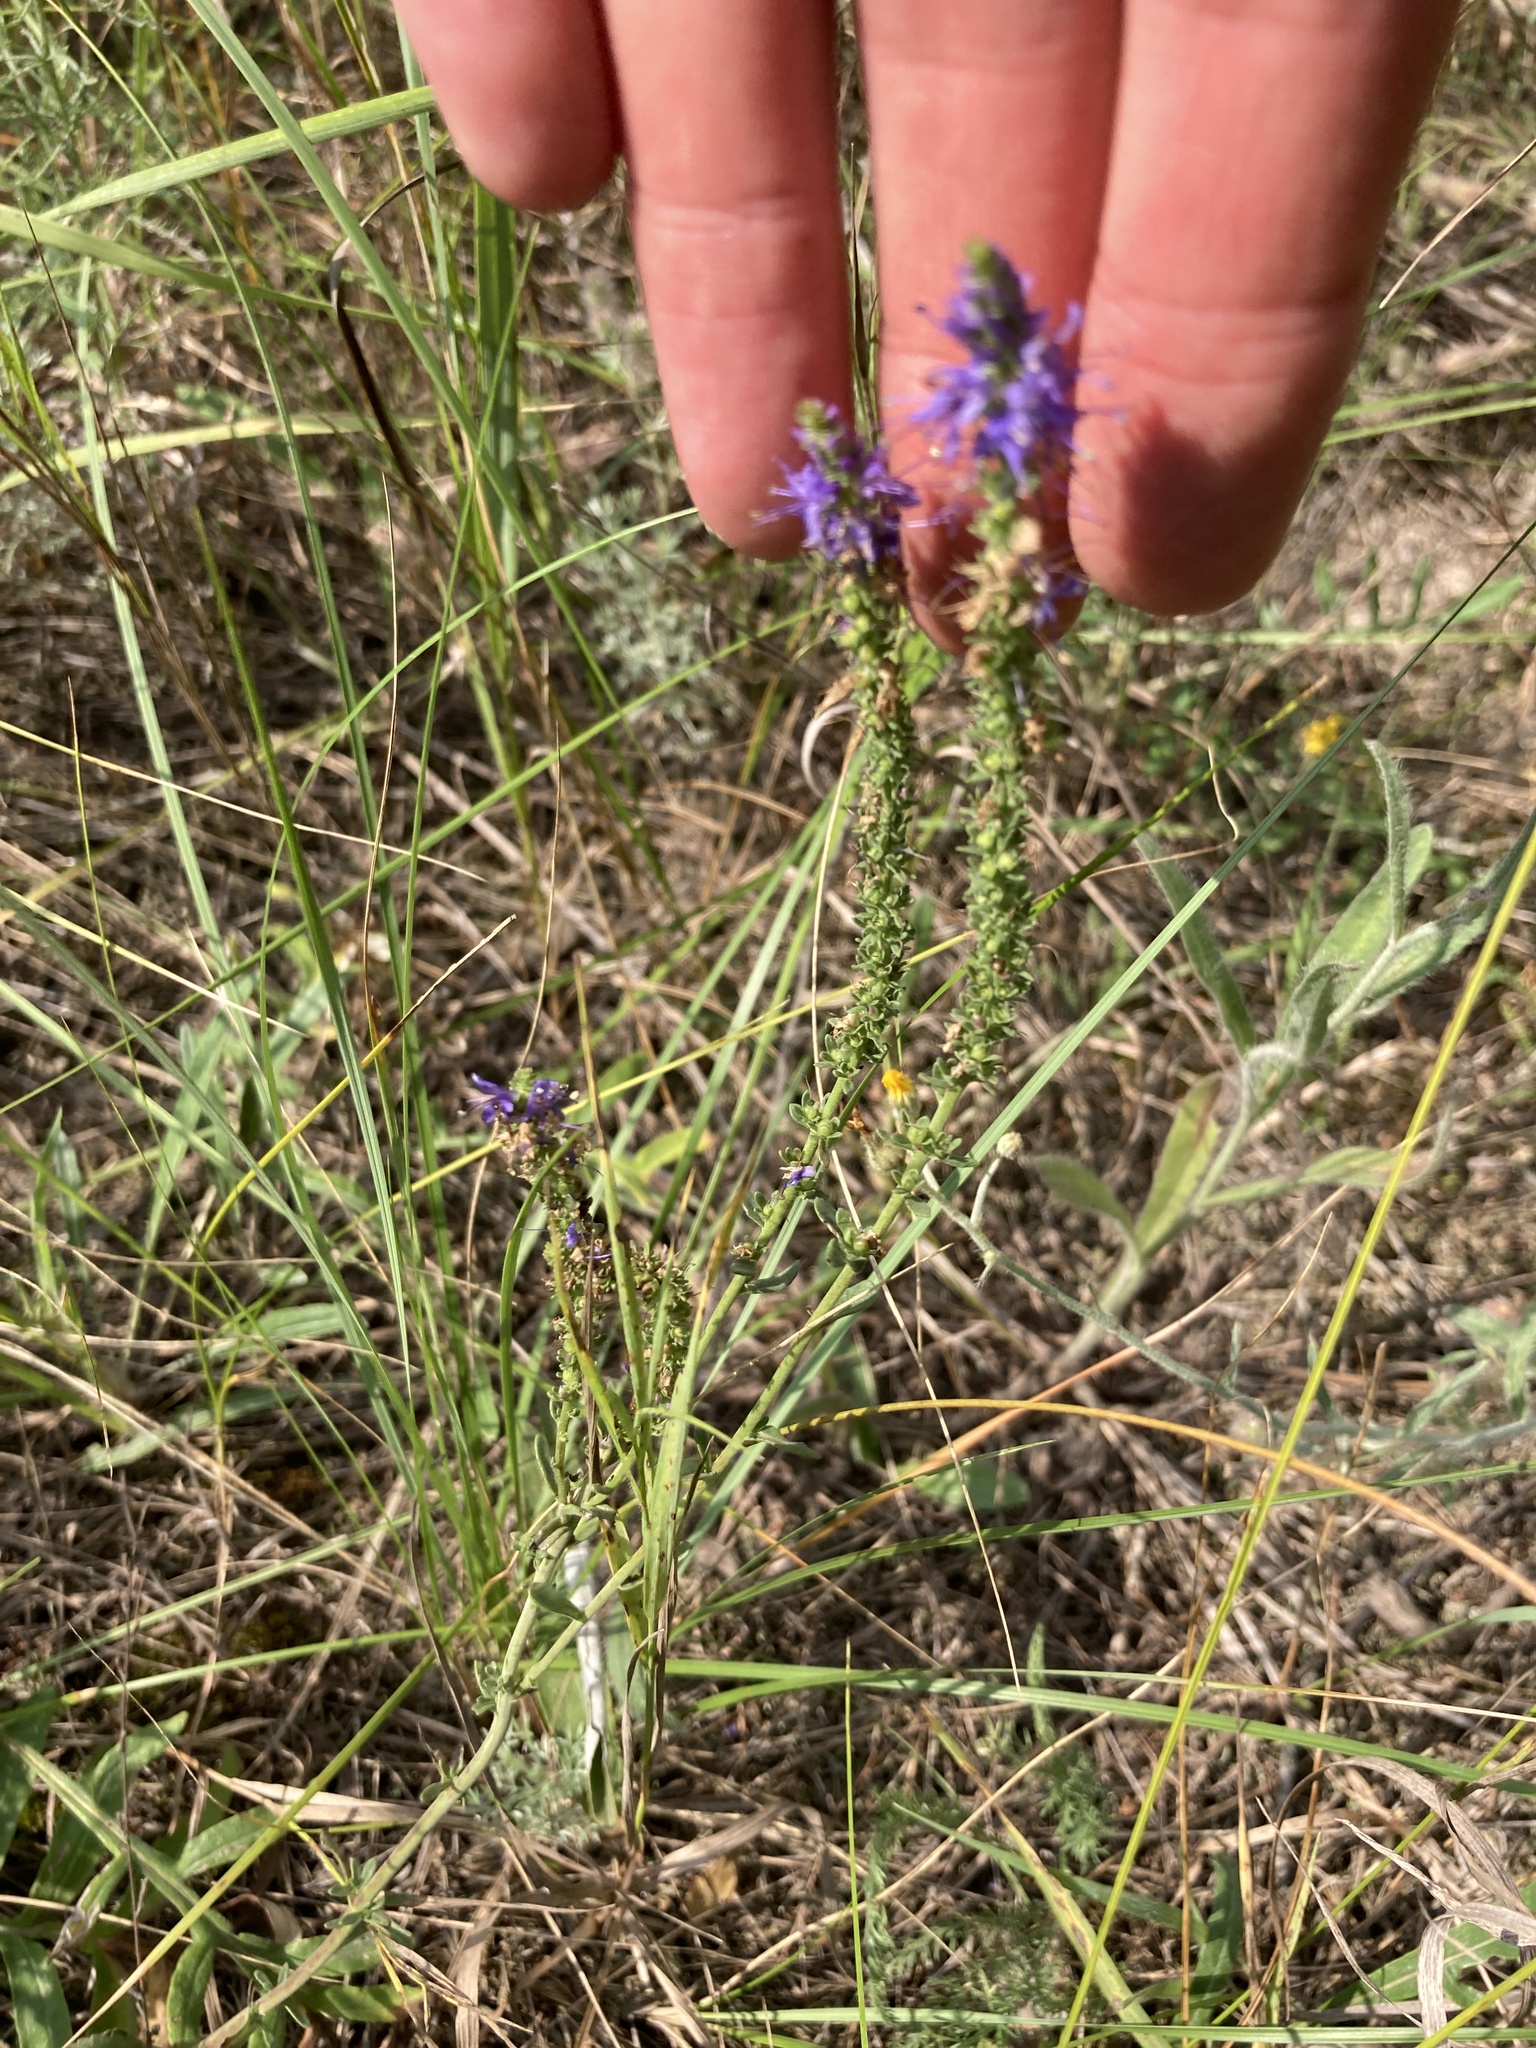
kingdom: Plantae
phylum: Tracheophyta
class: Magnoliopsida
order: Lamiales
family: Plantaginaceae
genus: Veronica
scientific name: Veronica spicata
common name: Spiked speedwell
